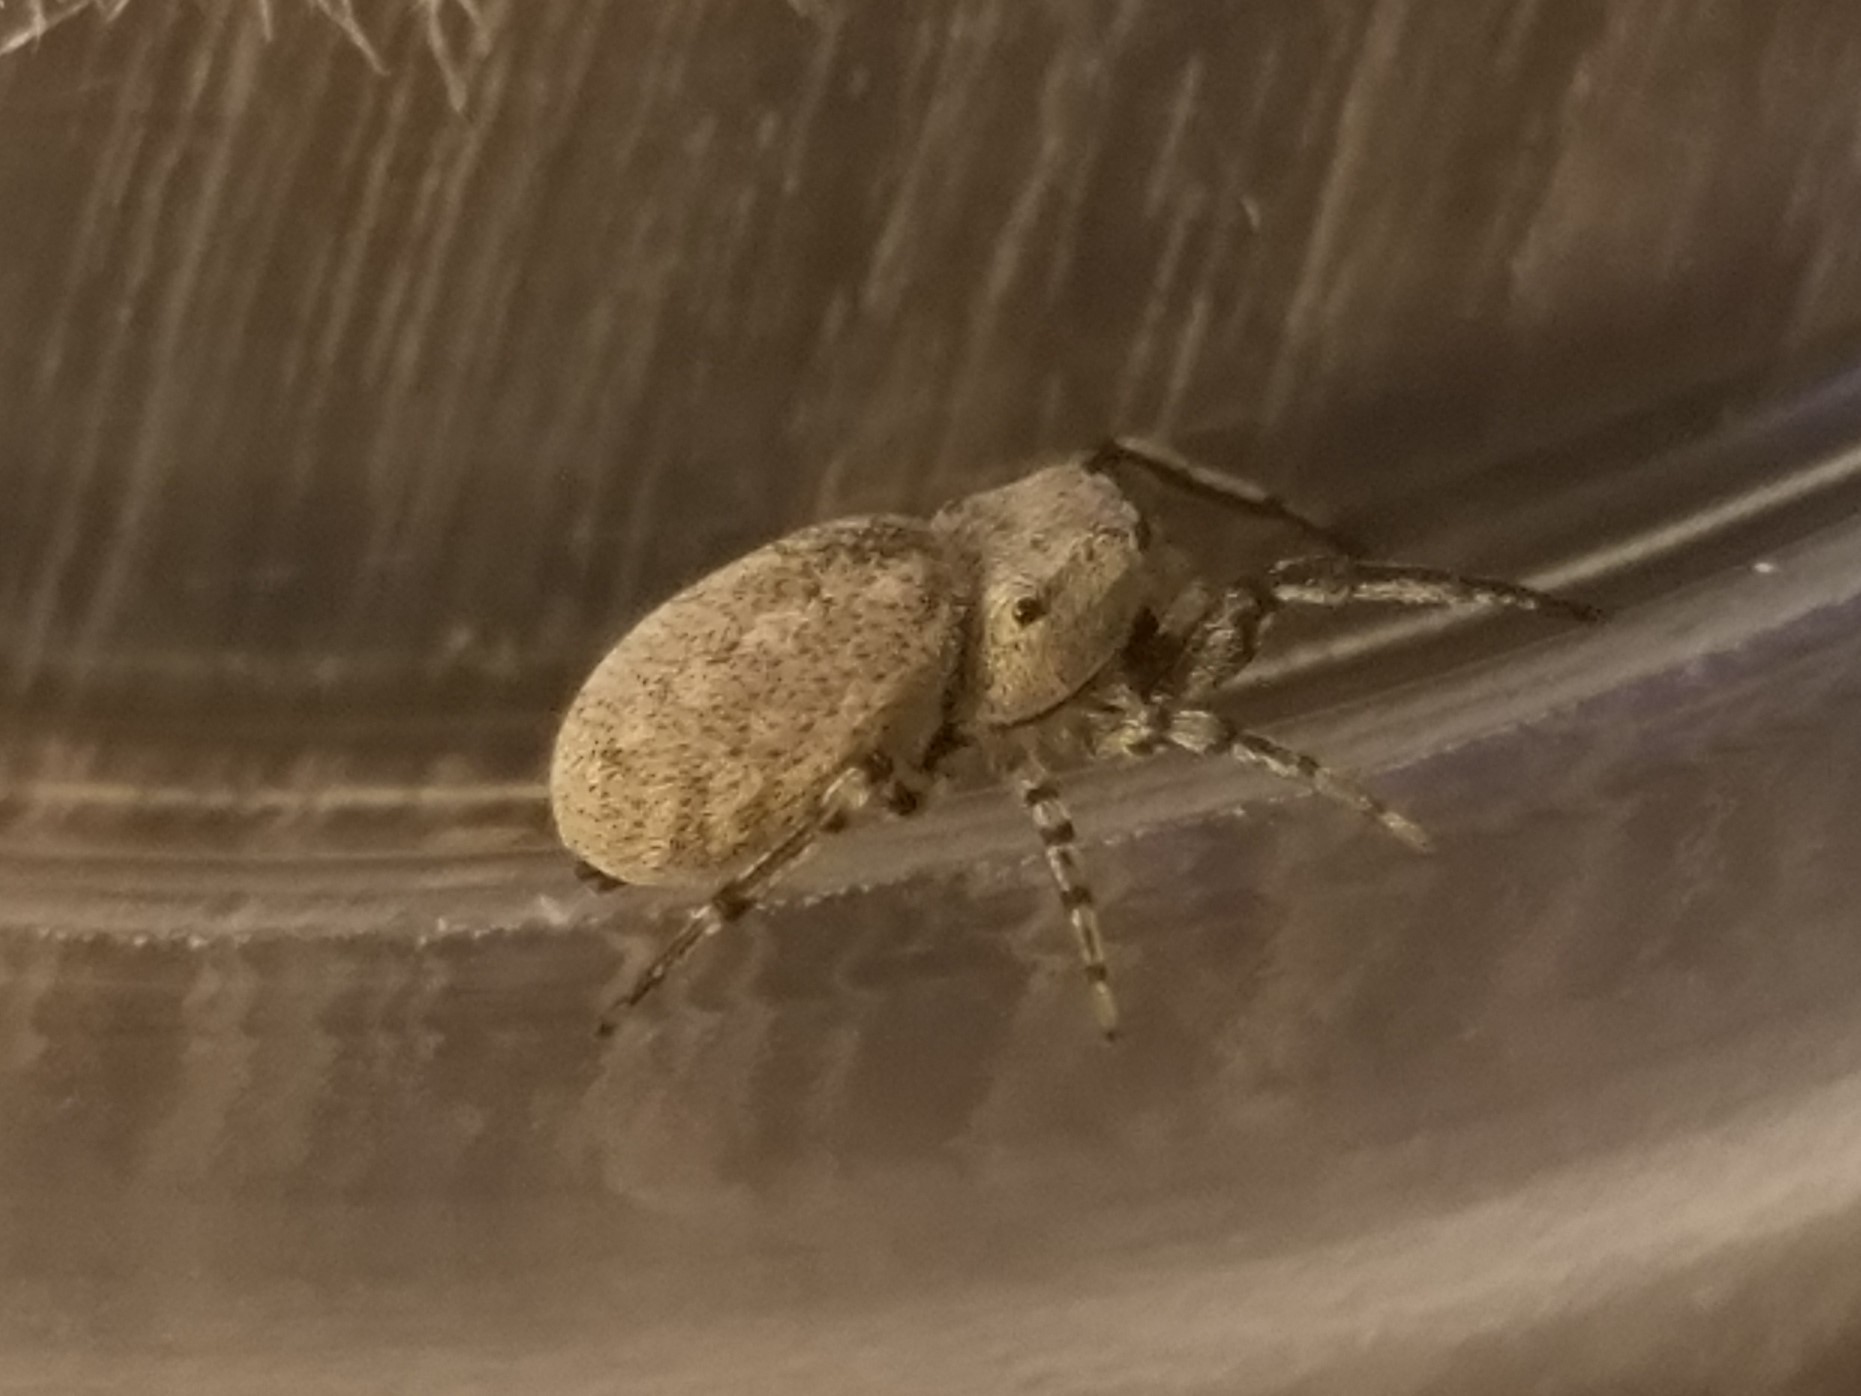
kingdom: Animalia
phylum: Arthropoda
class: Arachnida
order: Araneae
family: Salticidae
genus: Zygoballus
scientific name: Zygoballus rufipes
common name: Jumping spiders
